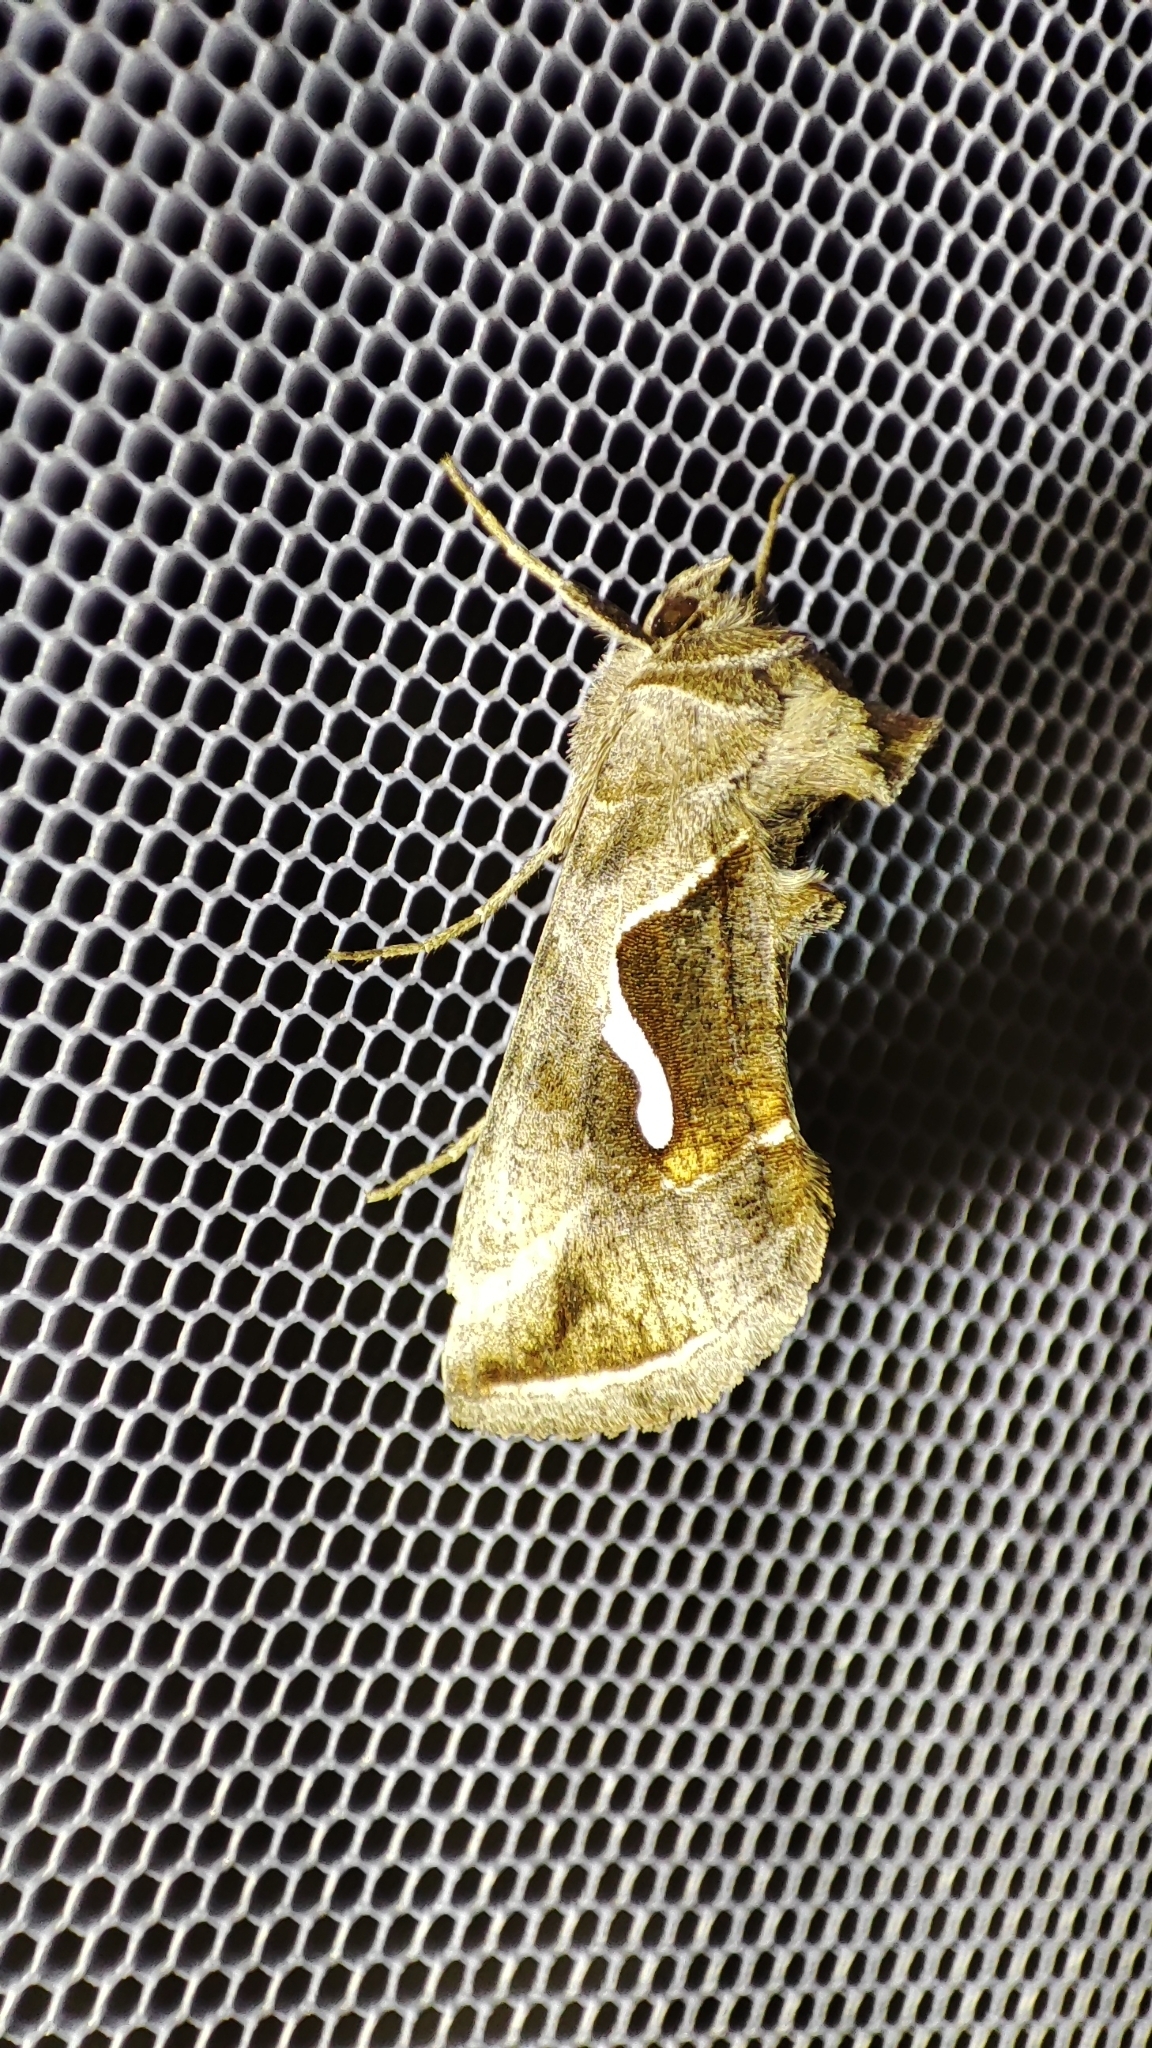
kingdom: Animalia
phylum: Arthropoda
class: Insecta
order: Lepidoptera
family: Noctuidae
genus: Macdunnoughia
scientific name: Macdunnoughia confusa
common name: Dewick's plusia
